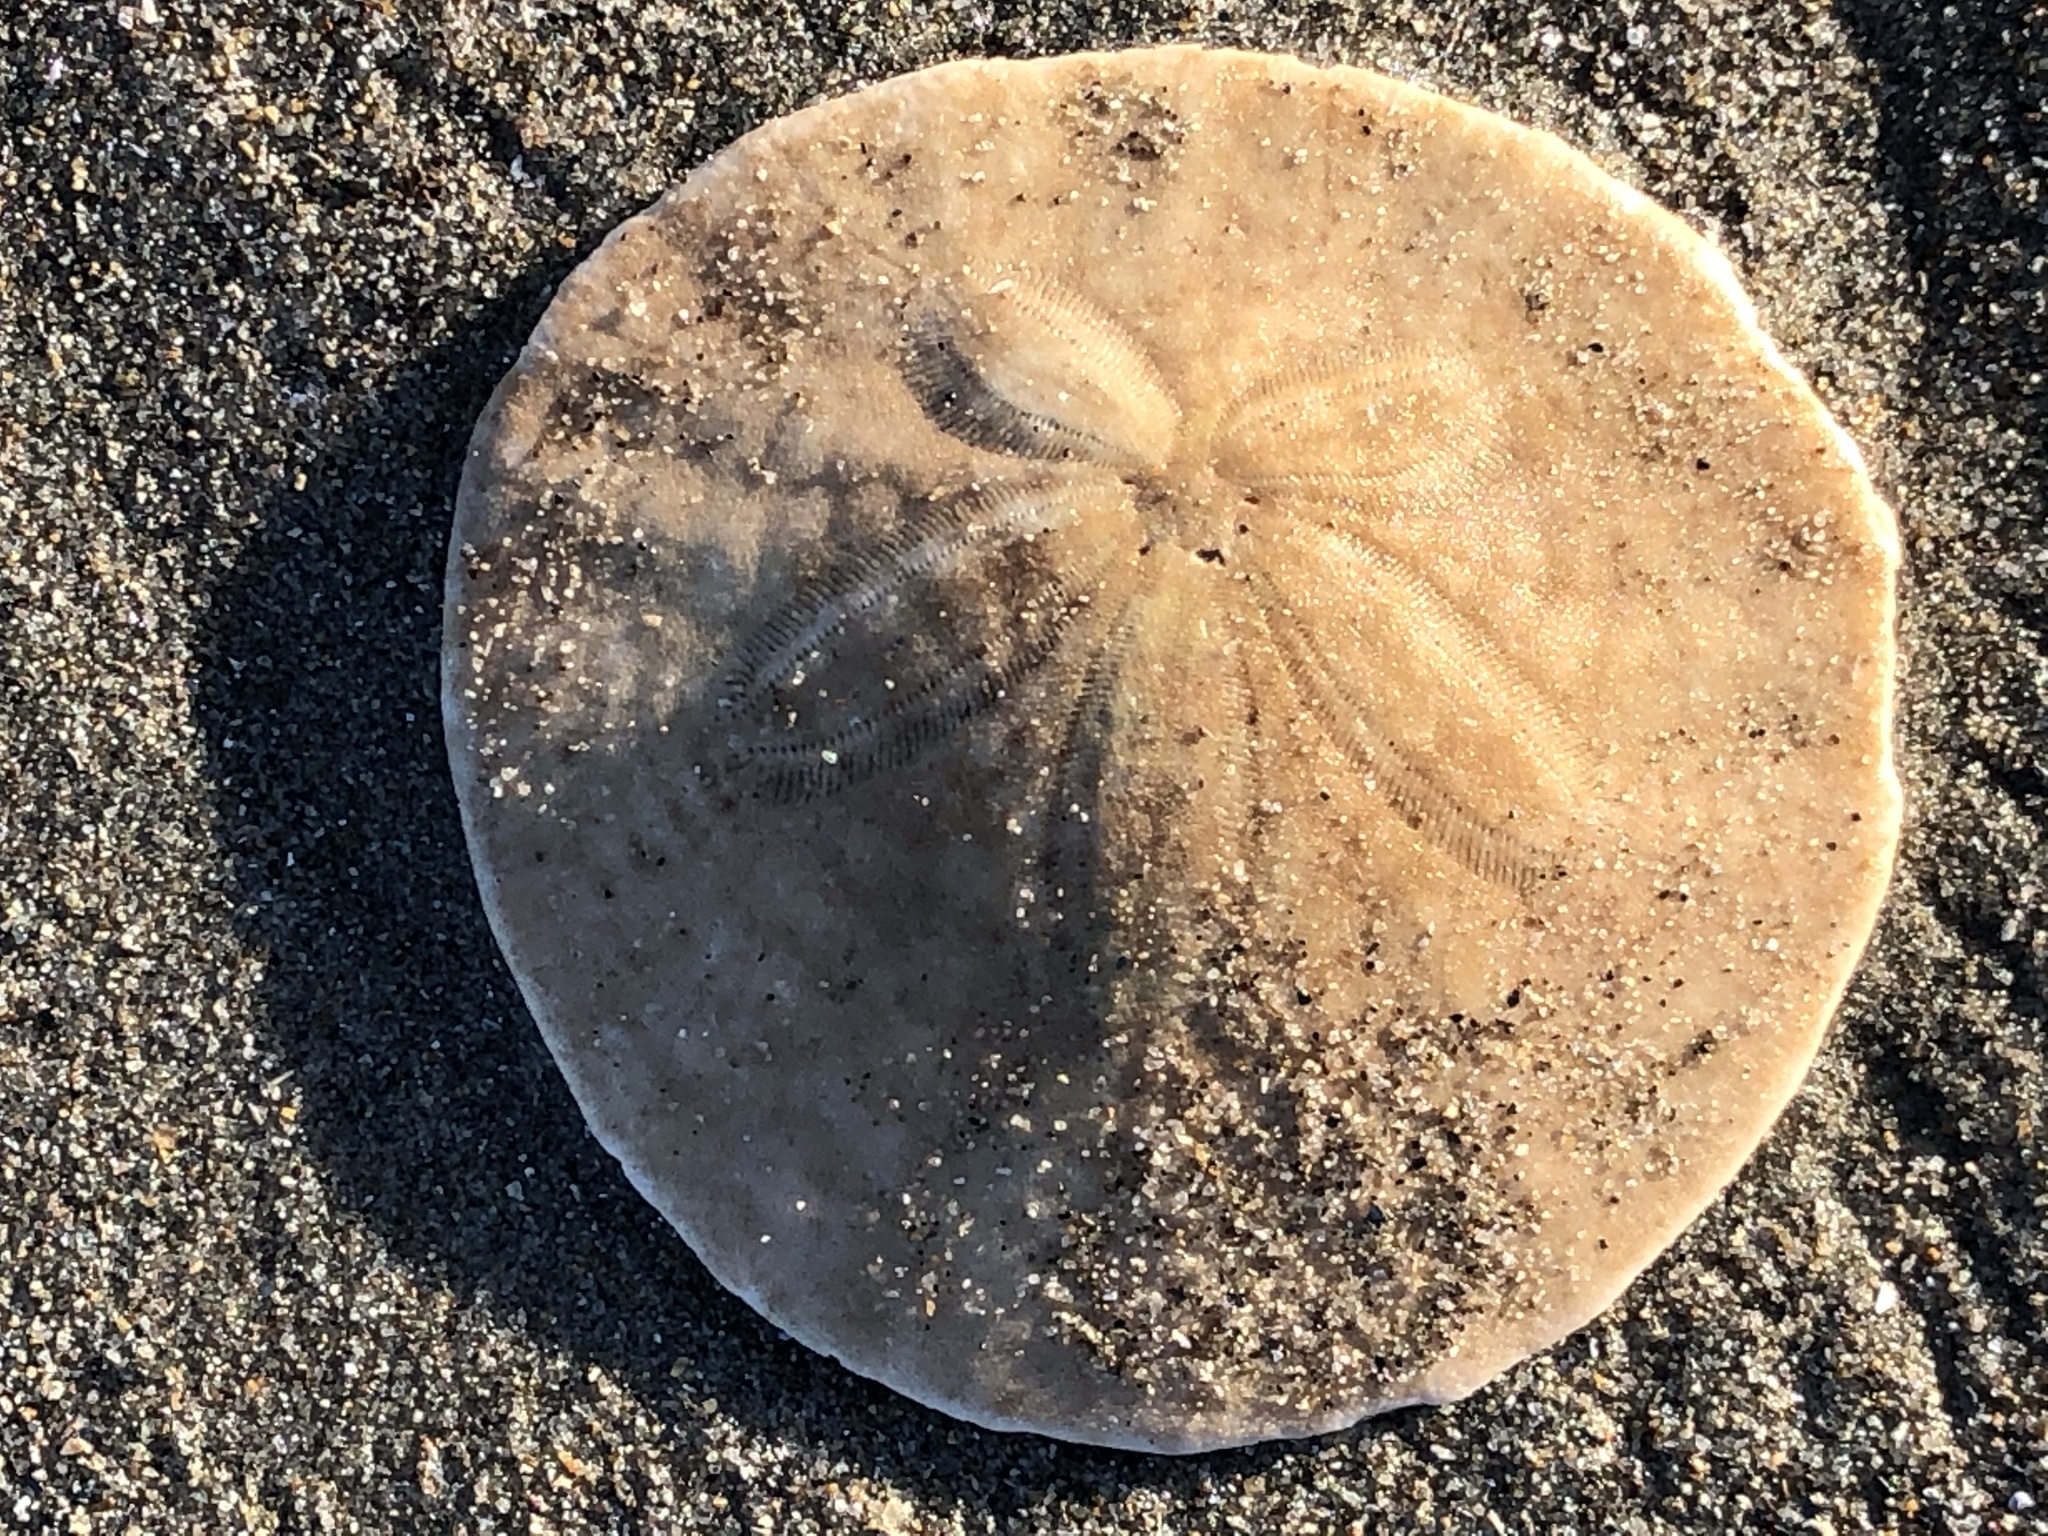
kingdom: Animalia
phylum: Echinodermata
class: Echinoidea
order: Echinolampadacea
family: Dendrasteridae
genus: Dendraster
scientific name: Dendraster excentricus
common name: Eccentric sand dollar sea urchin
